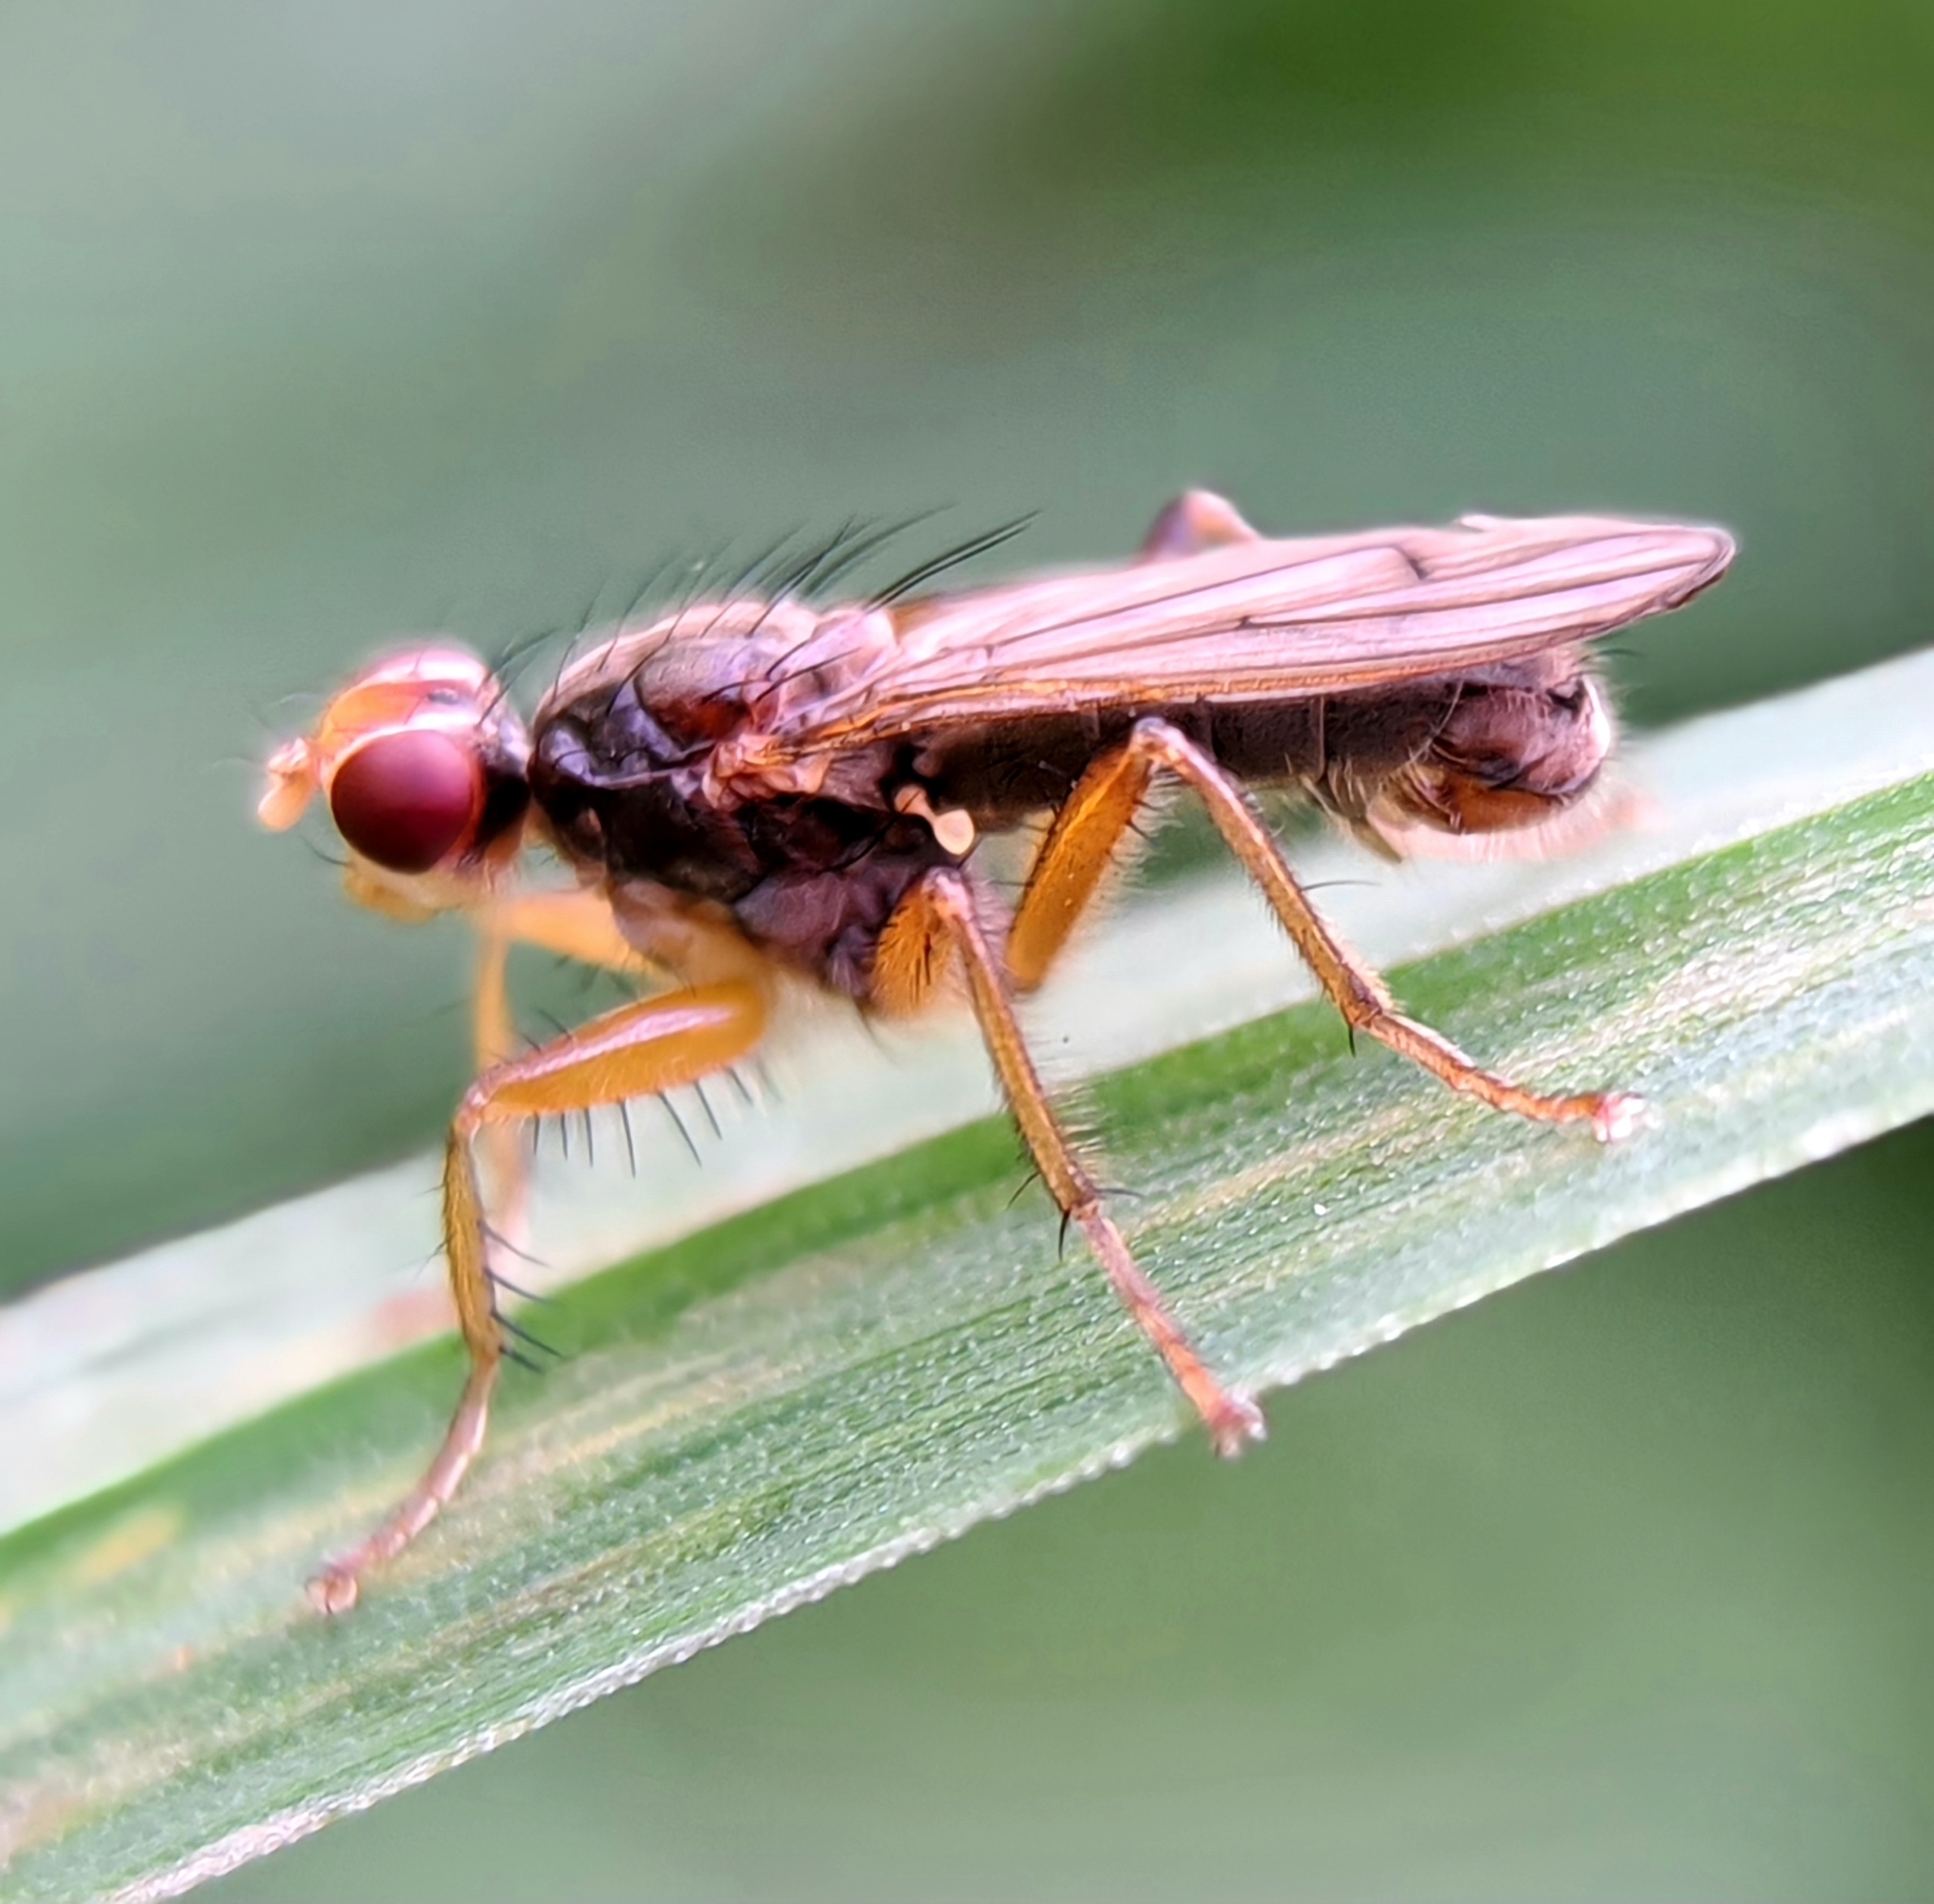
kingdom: Animalia
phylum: Arthropoda
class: Insecta
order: Diptera
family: Scathophagidae
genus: Norellisoma
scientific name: Norellisoma spinimanum
